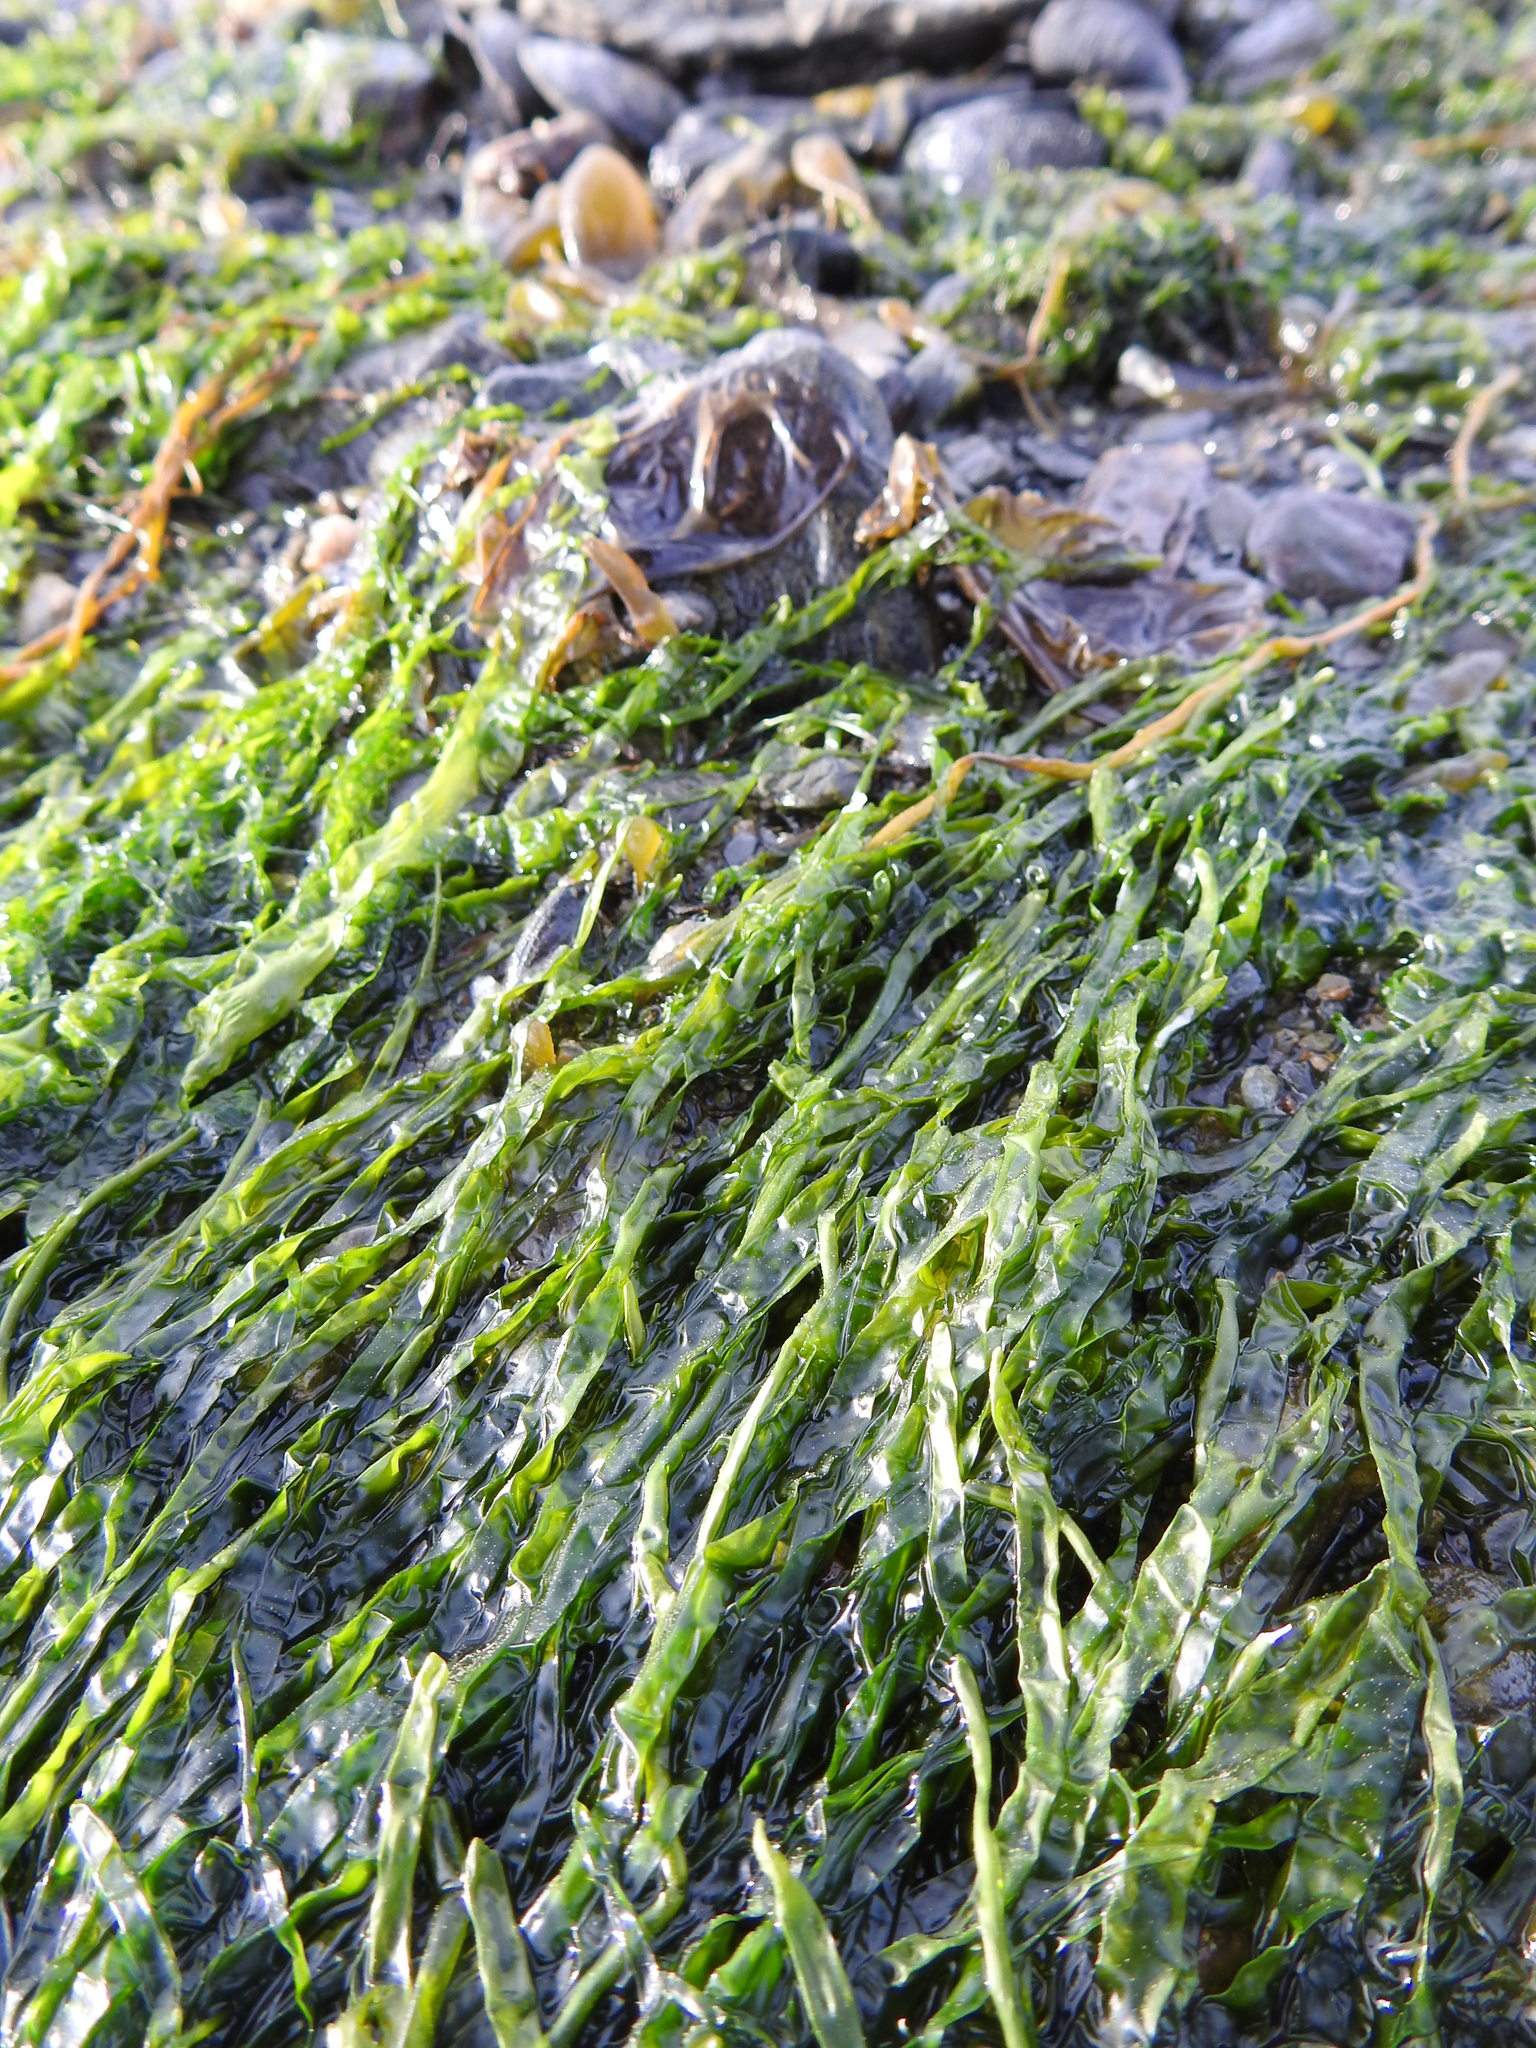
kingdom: Plantae
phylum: Chlorophyta
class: Ulvophyceae
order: Ulvales
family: Ulvaceae
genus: Ulva
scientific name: Ulva intestinalis
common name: Gut weed
